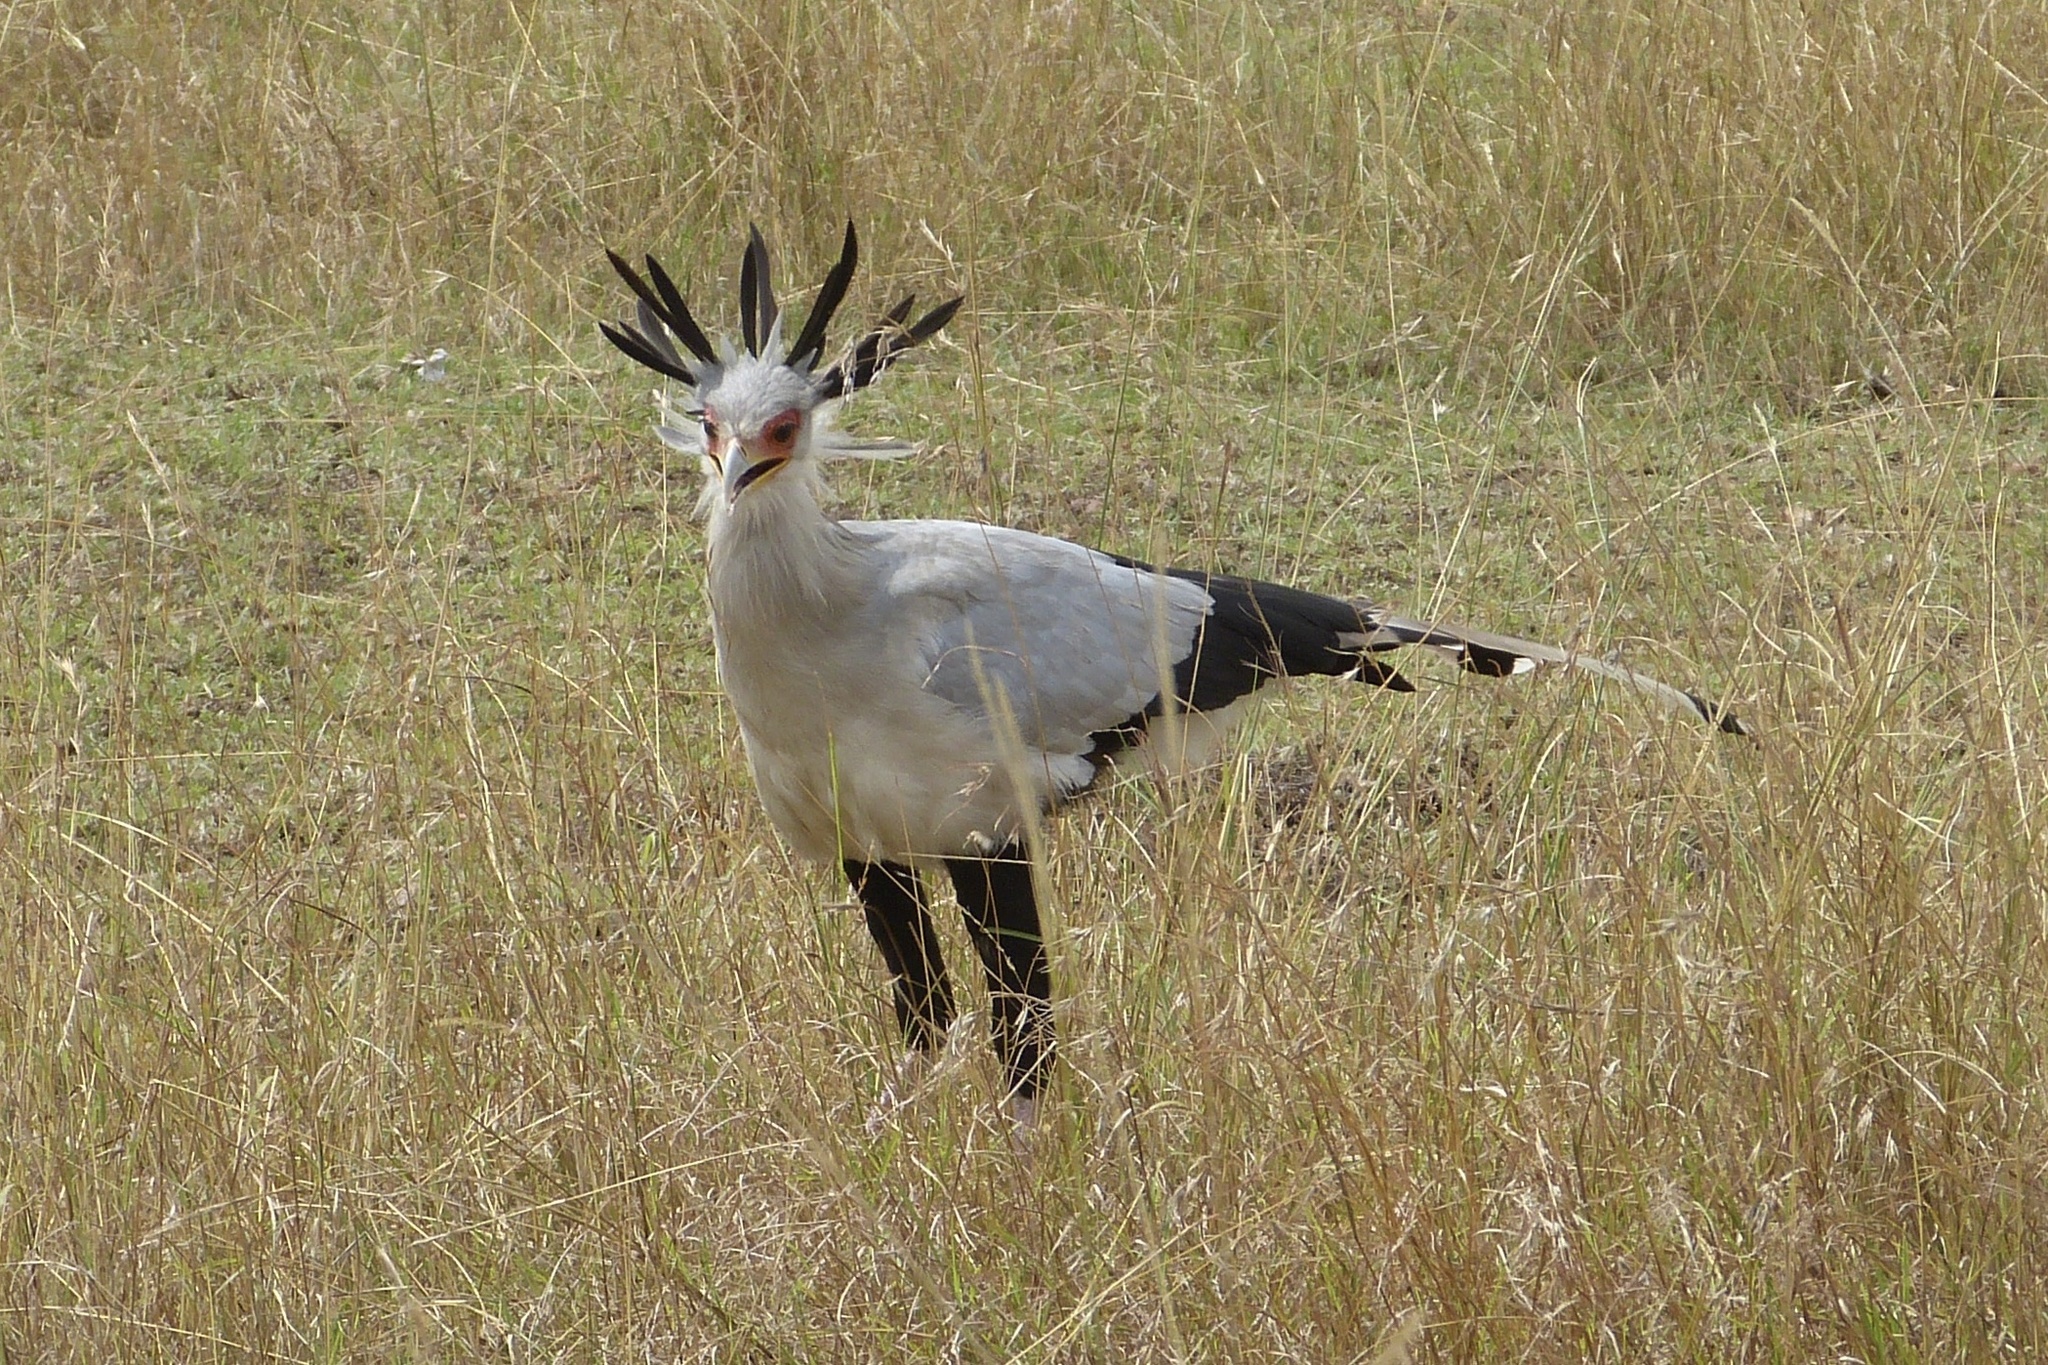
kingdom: Animalia
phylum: Chordata
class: Aves
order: Accipitriformes
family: Sagittariidae
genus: Sagittarius
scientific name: Sagittarius serpentarius
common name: Secretarybird
